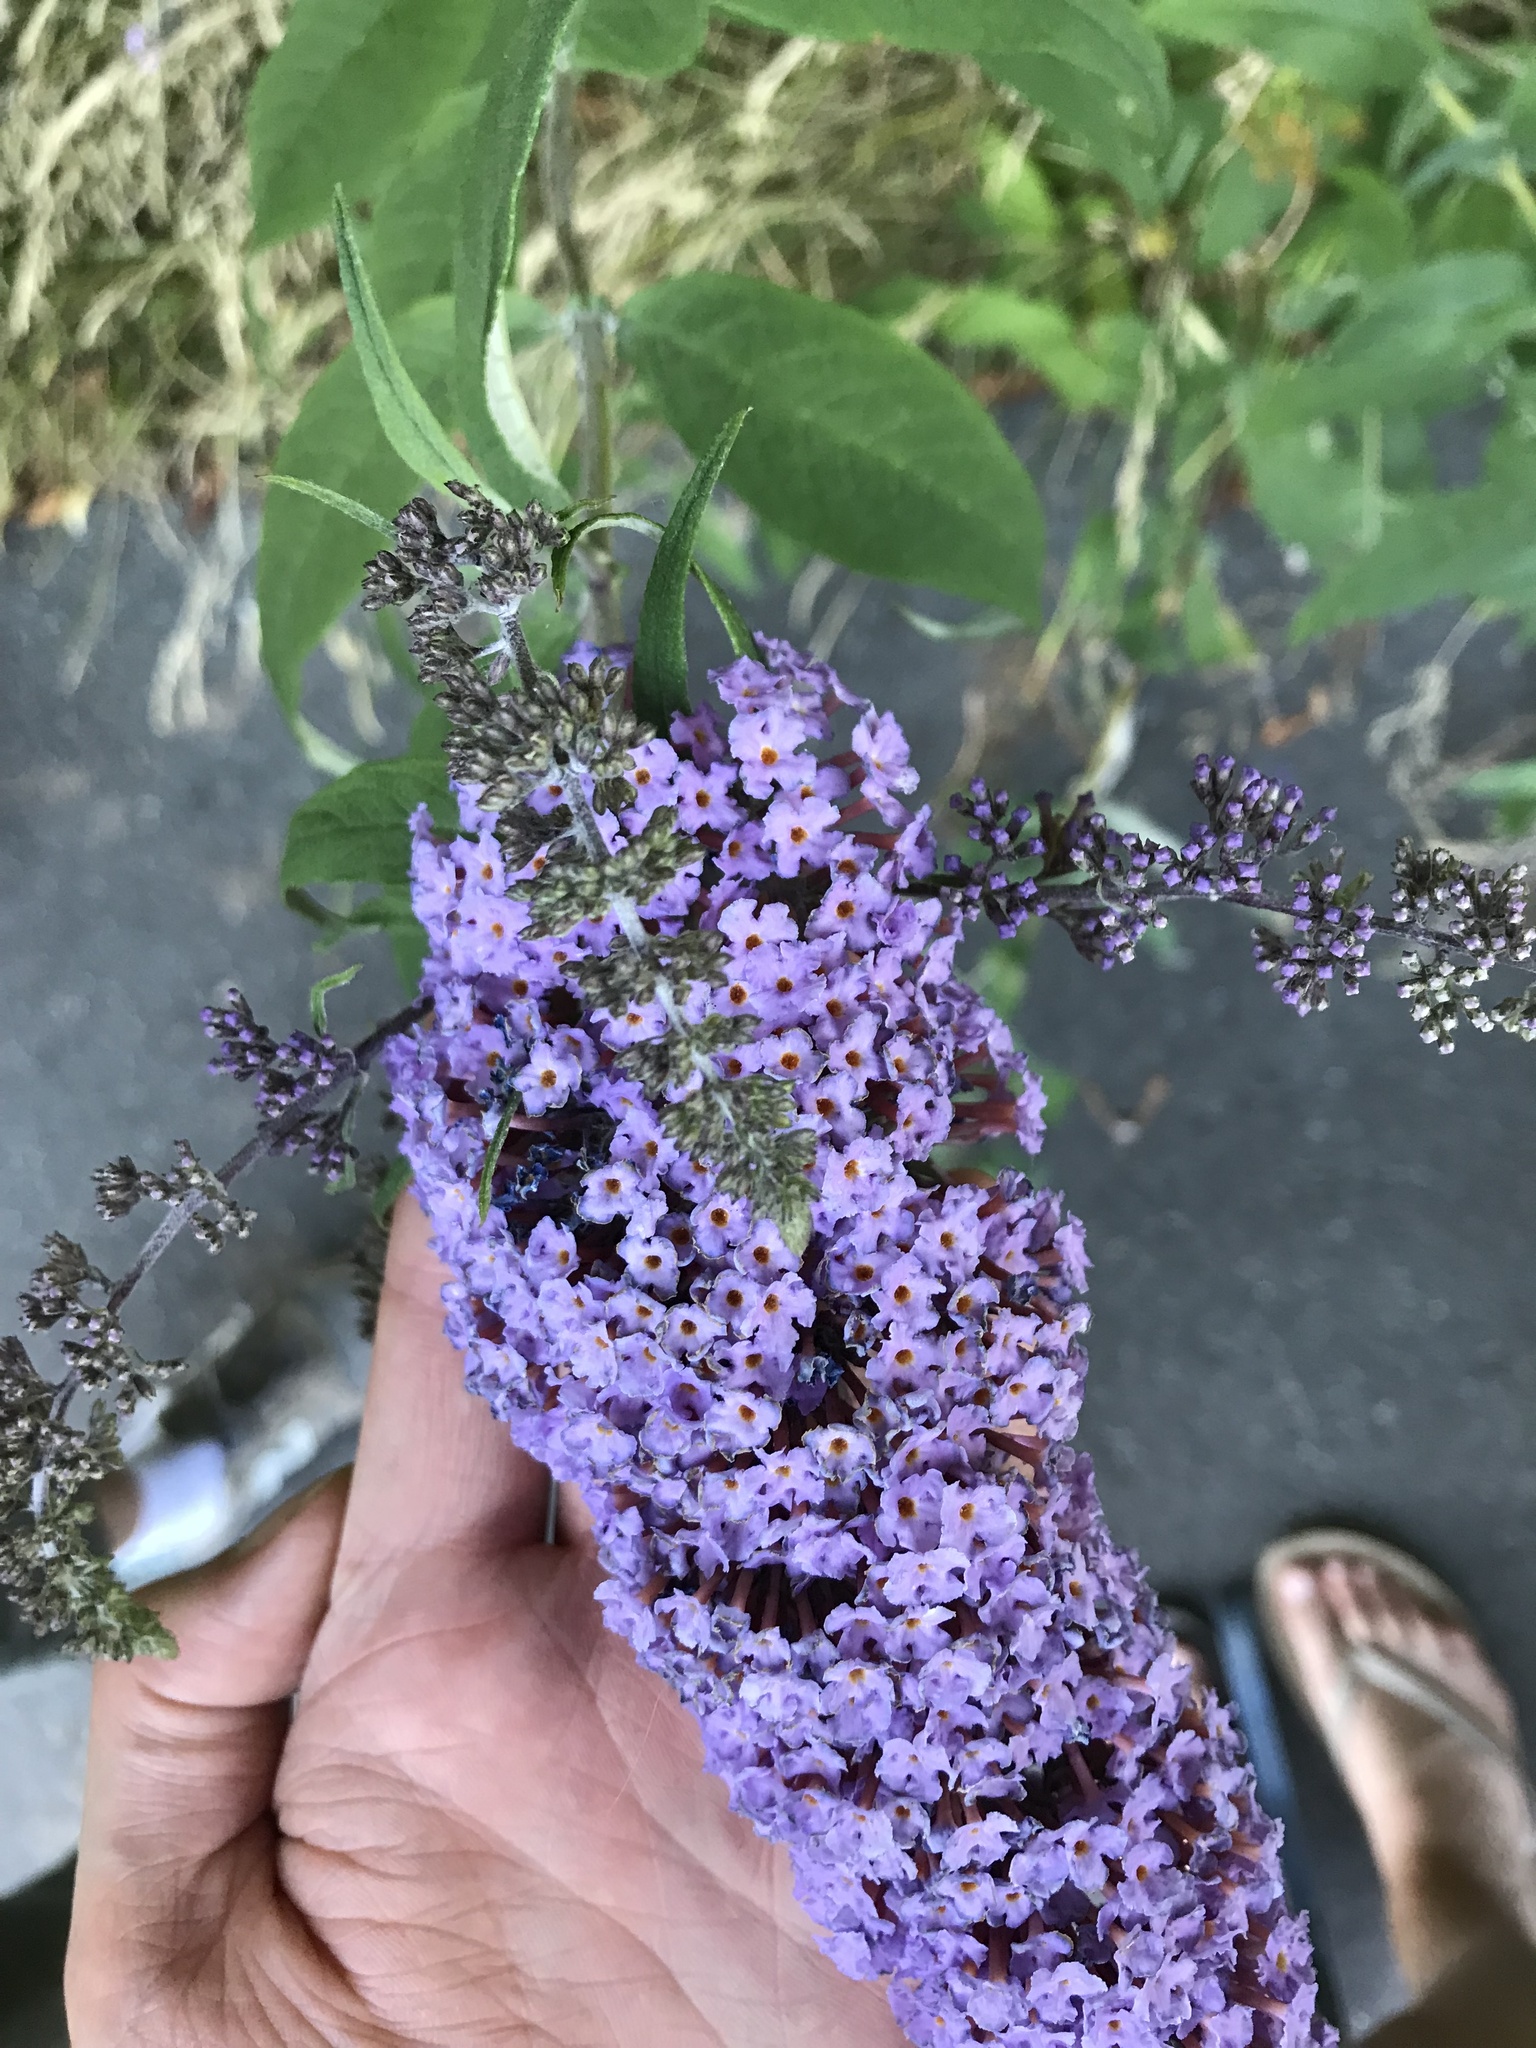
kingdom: Plantae
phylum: Tracheophyta
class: Magnoliopsida
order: Lamiales
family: Scrophulariaceae
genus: Buddleja
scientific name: Buddleja davidii
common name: Butterfly-bush
